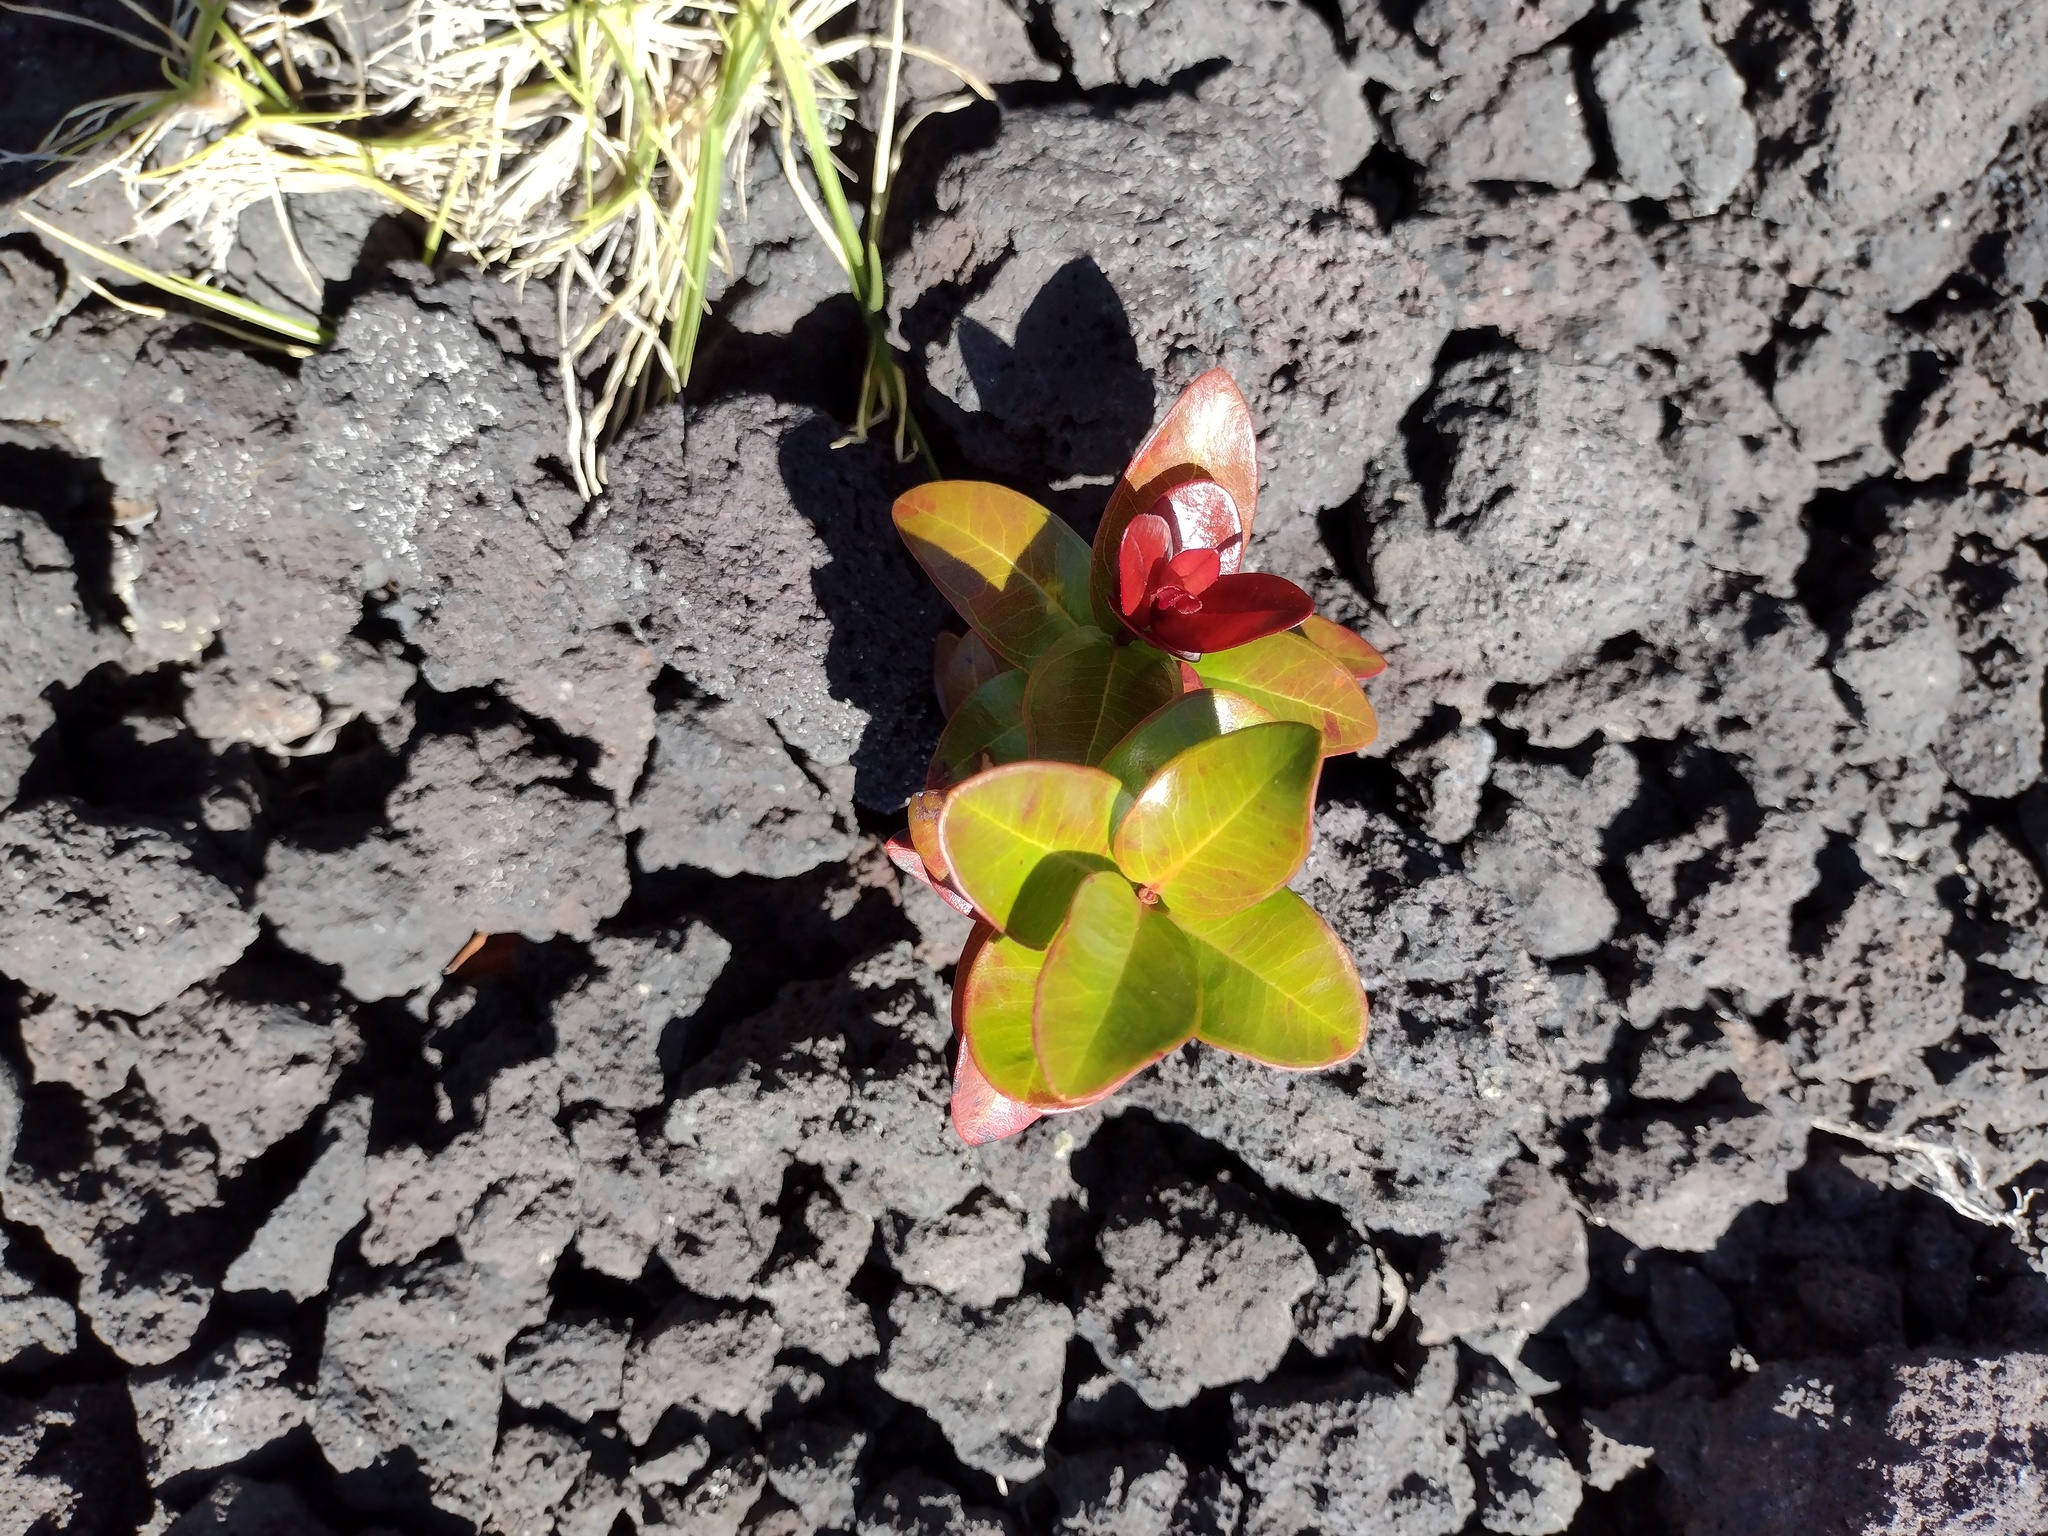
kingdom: Plantae
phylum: Tracheophyta
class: Magnoliopsida
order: Myrtales
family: Myrtaceae
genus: Metrosideros
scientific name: Metrosideros polymorpha
